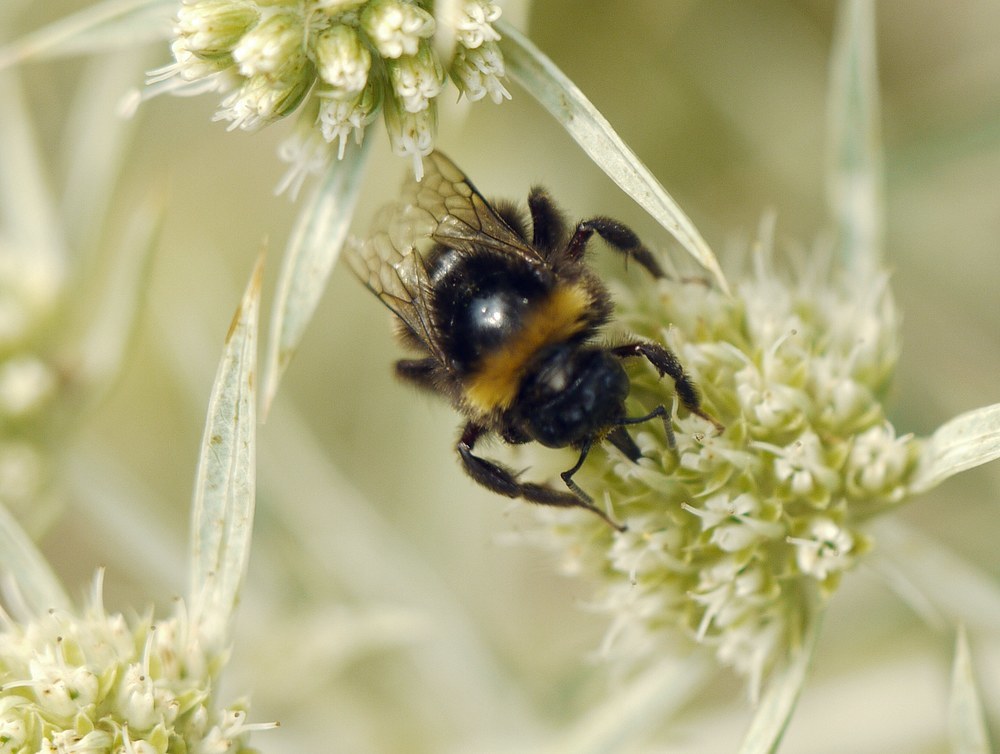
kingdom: Animalia
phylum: Arthropoda
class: Insecta
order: Hymenoptera
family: Apidae
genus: Bombus
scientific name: Bombus
